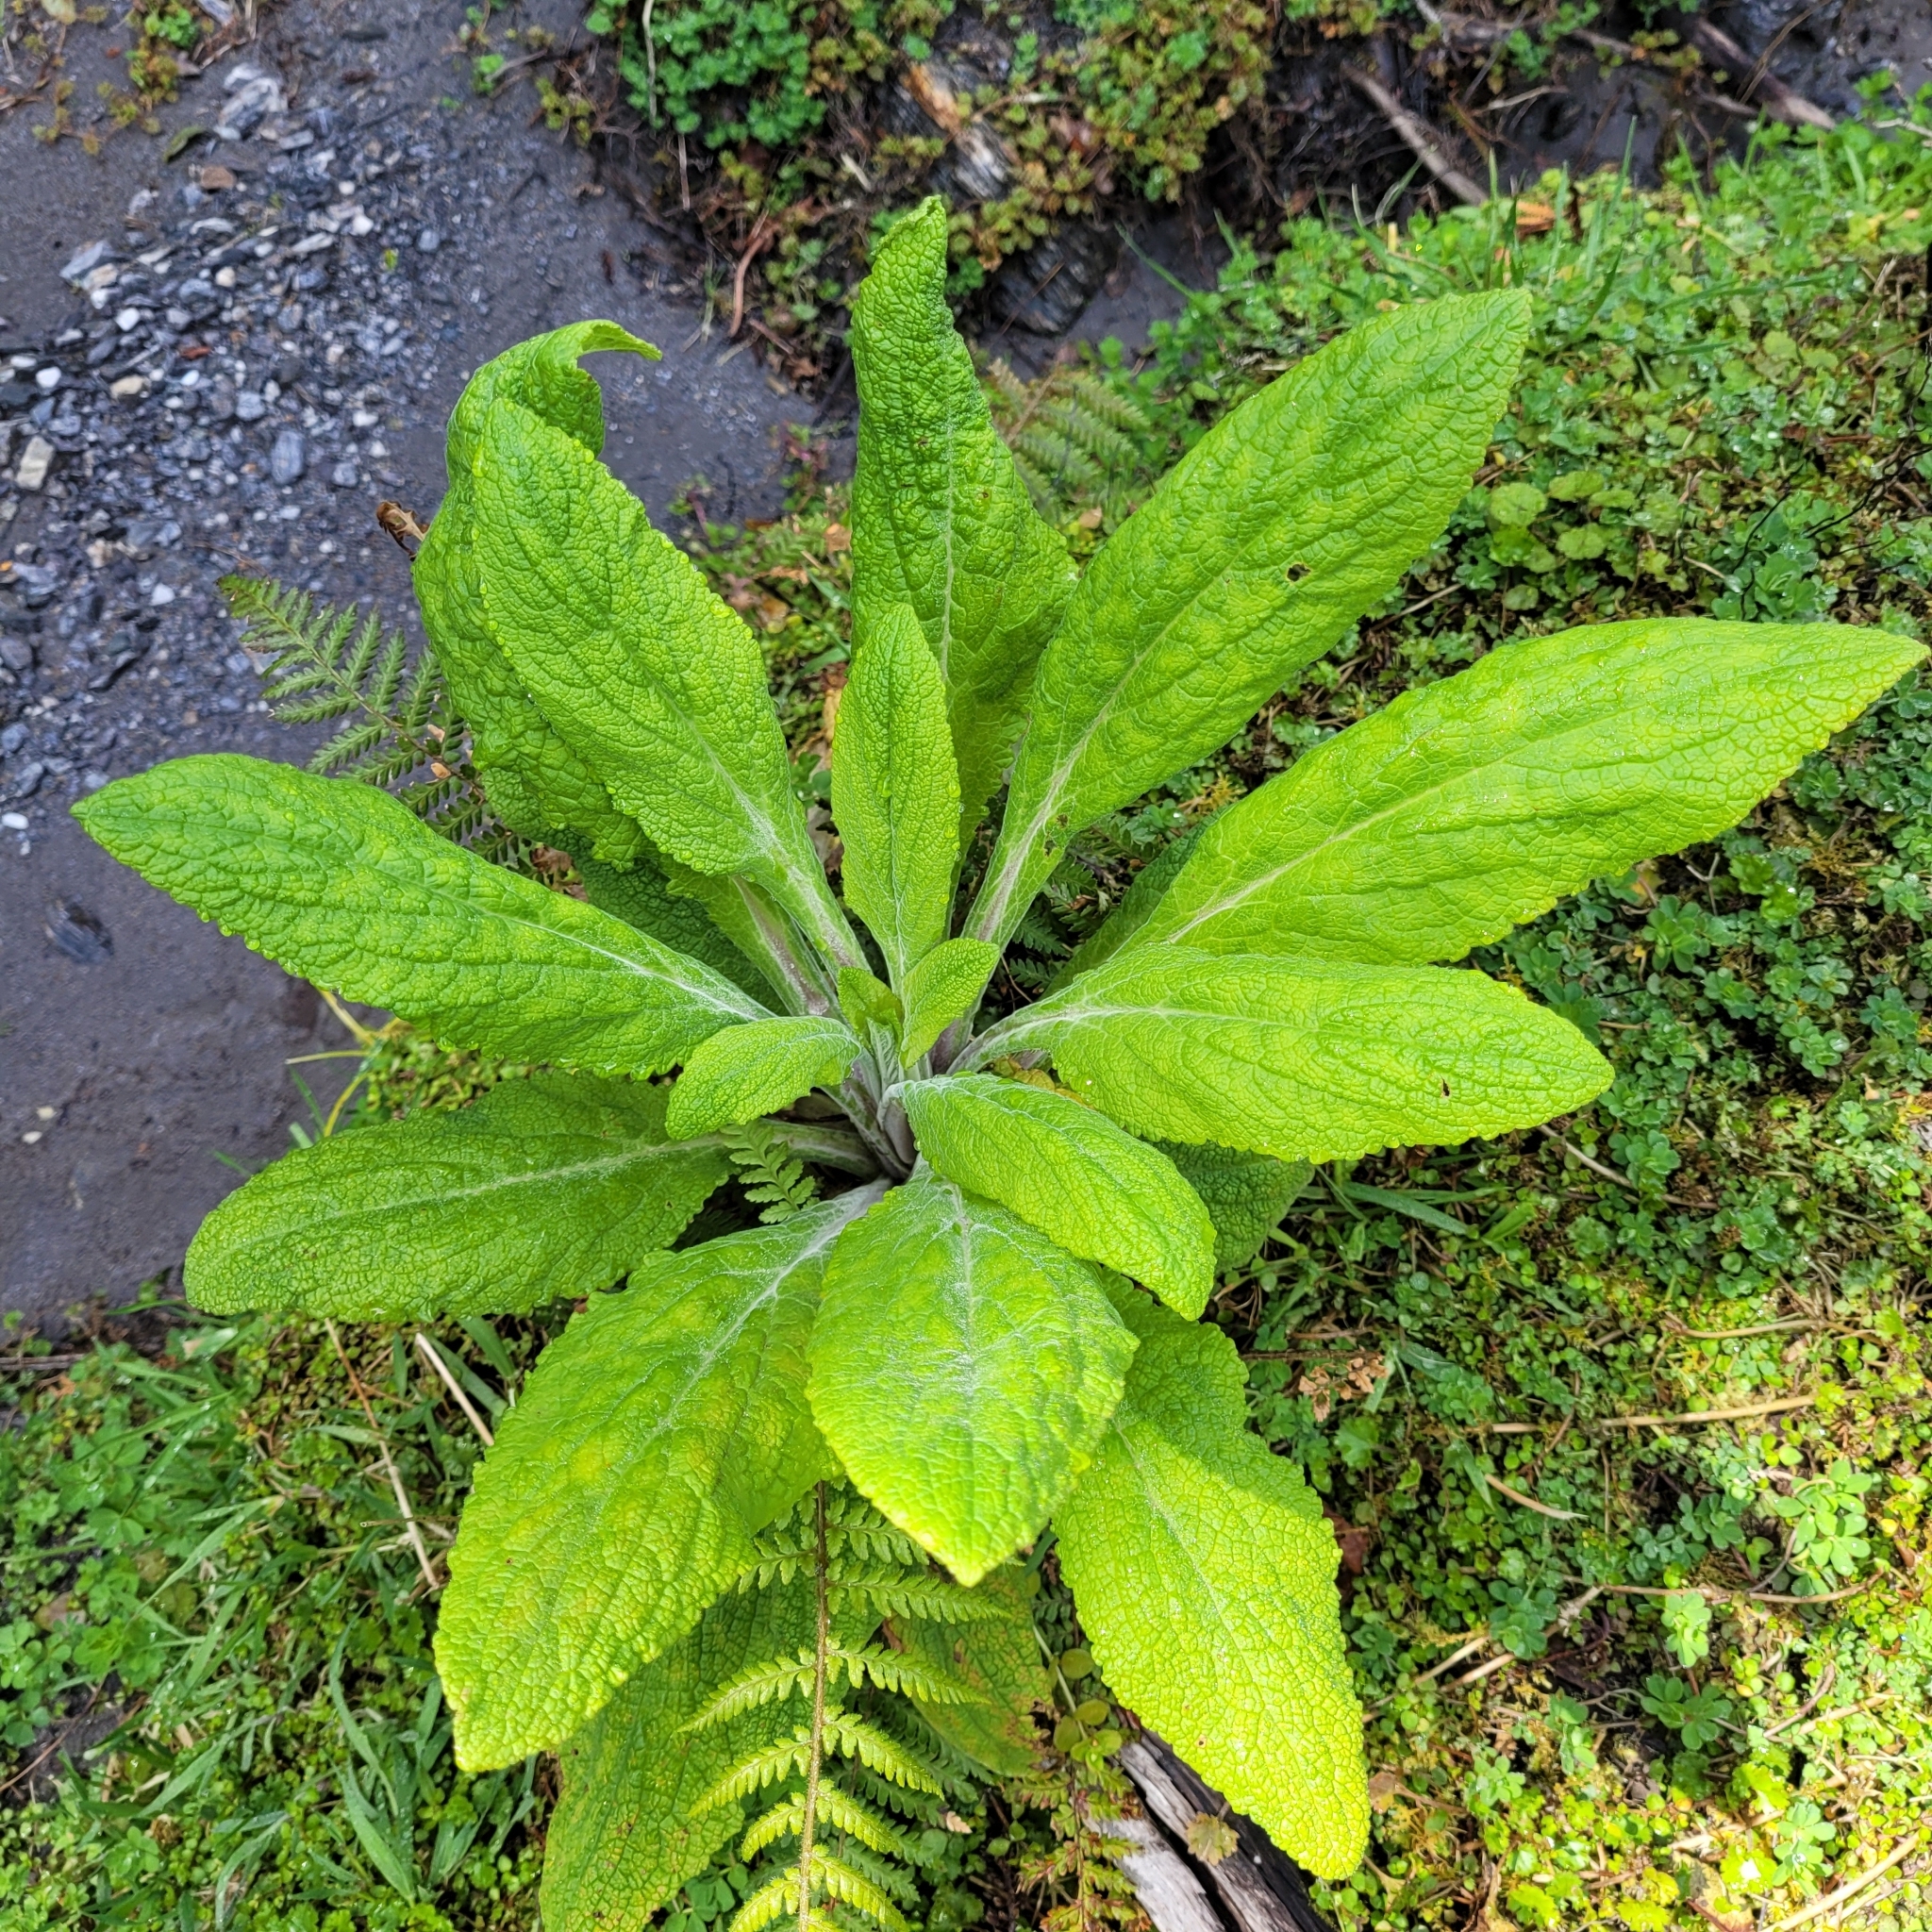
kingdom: Plantae
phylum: Tracheophyta
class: Magnoliopsida
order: Lamiales
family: Plantaginaceae
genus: Digitalis
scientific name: Digitalis purpurea
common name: Foxglove
